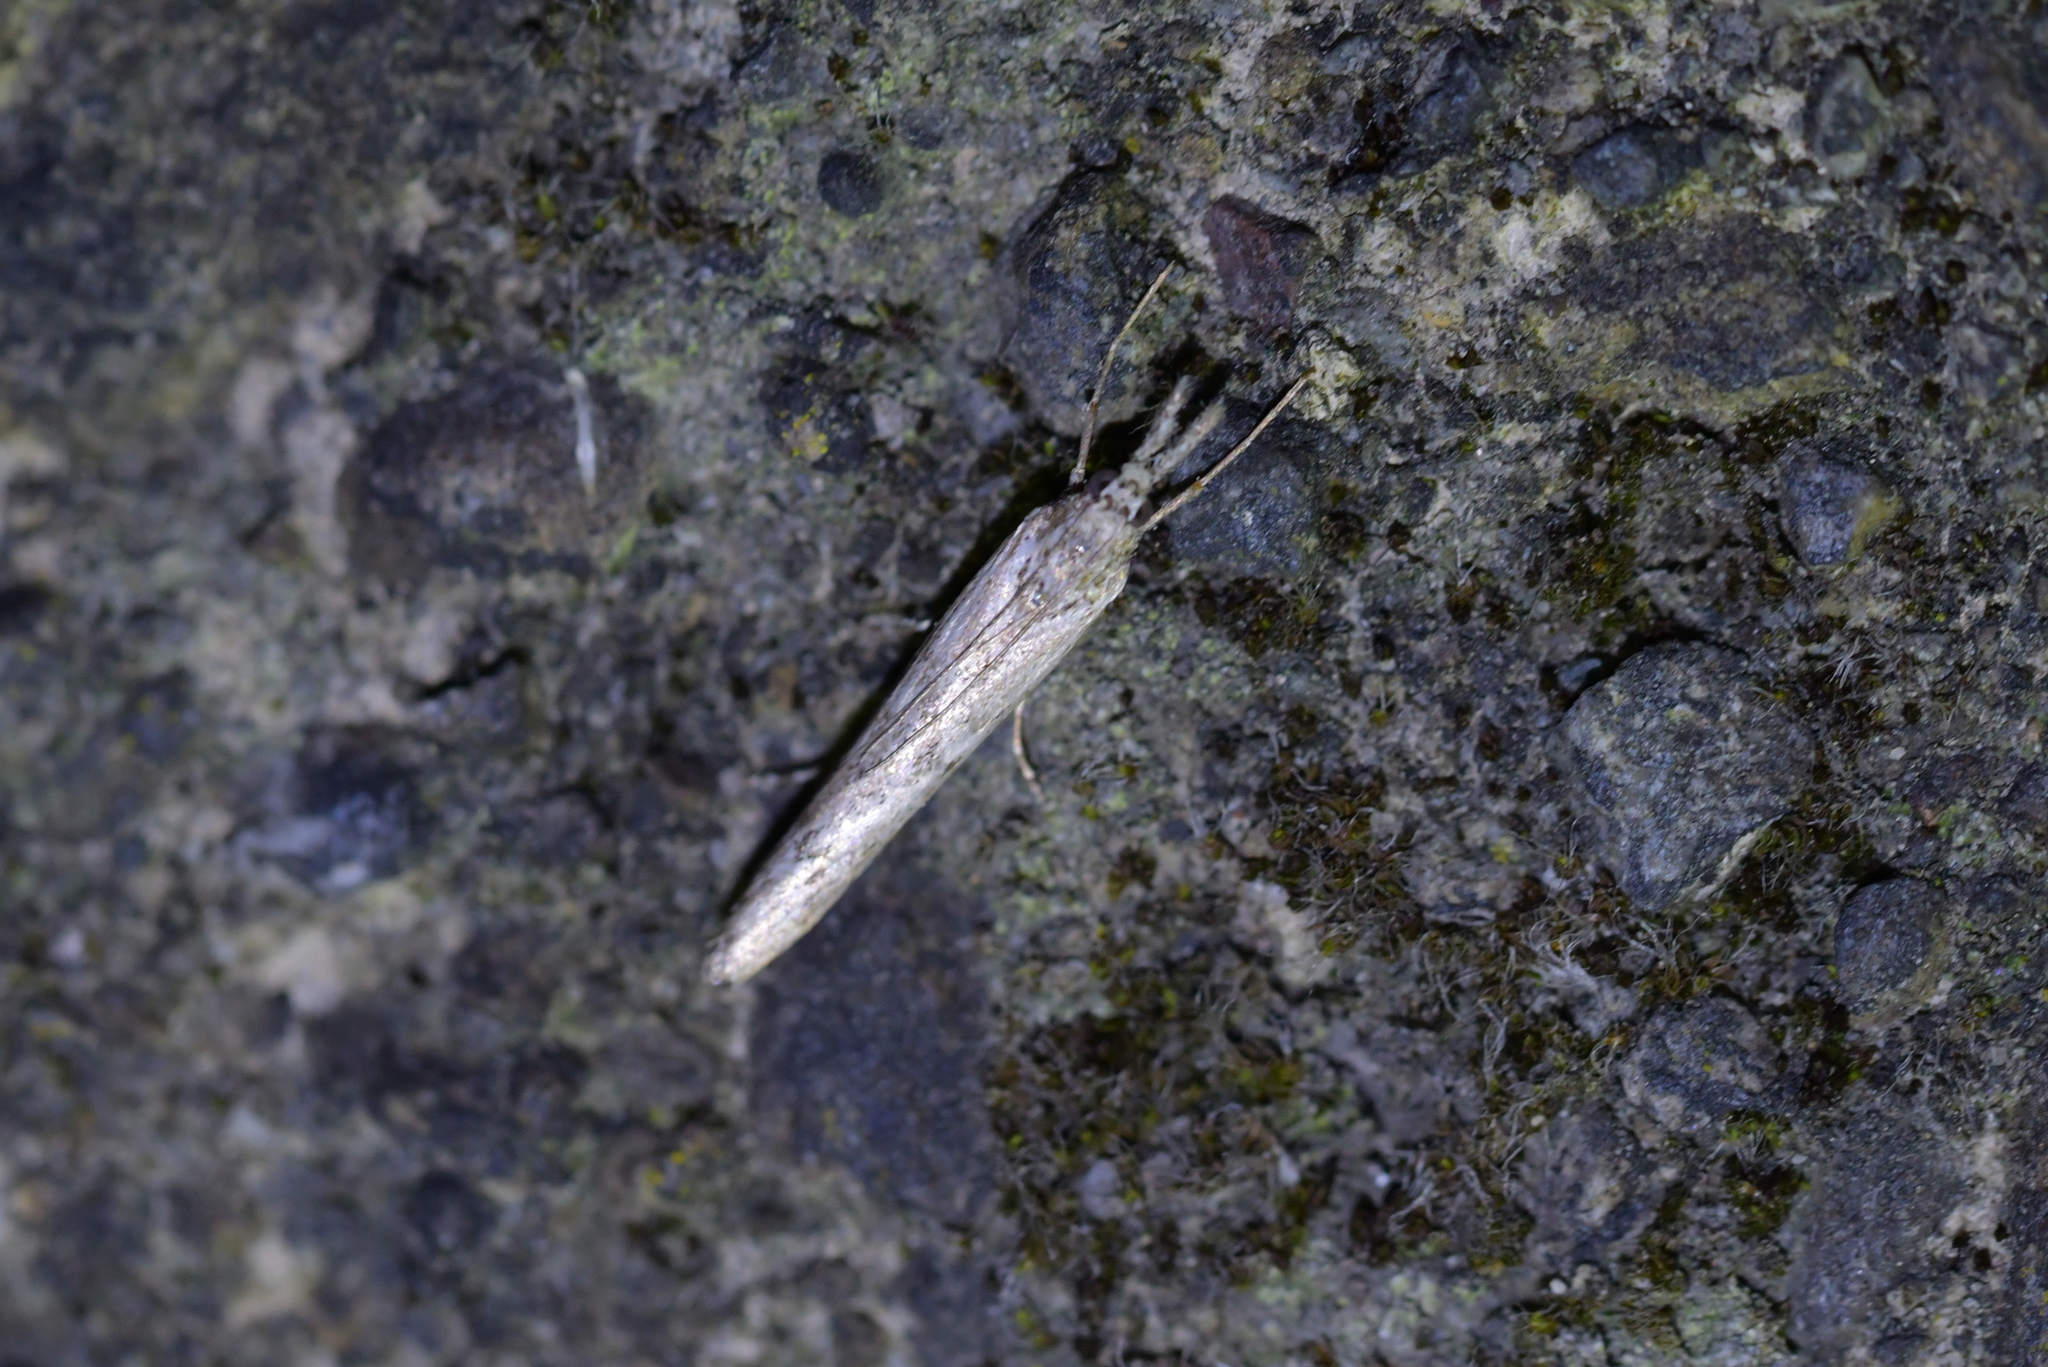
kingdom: Animalia
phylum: Arthropoda
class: Insecta
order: Lepidoptera
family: Crambidae
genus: Orocrambus
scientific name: Orocrambus cyclopicus
